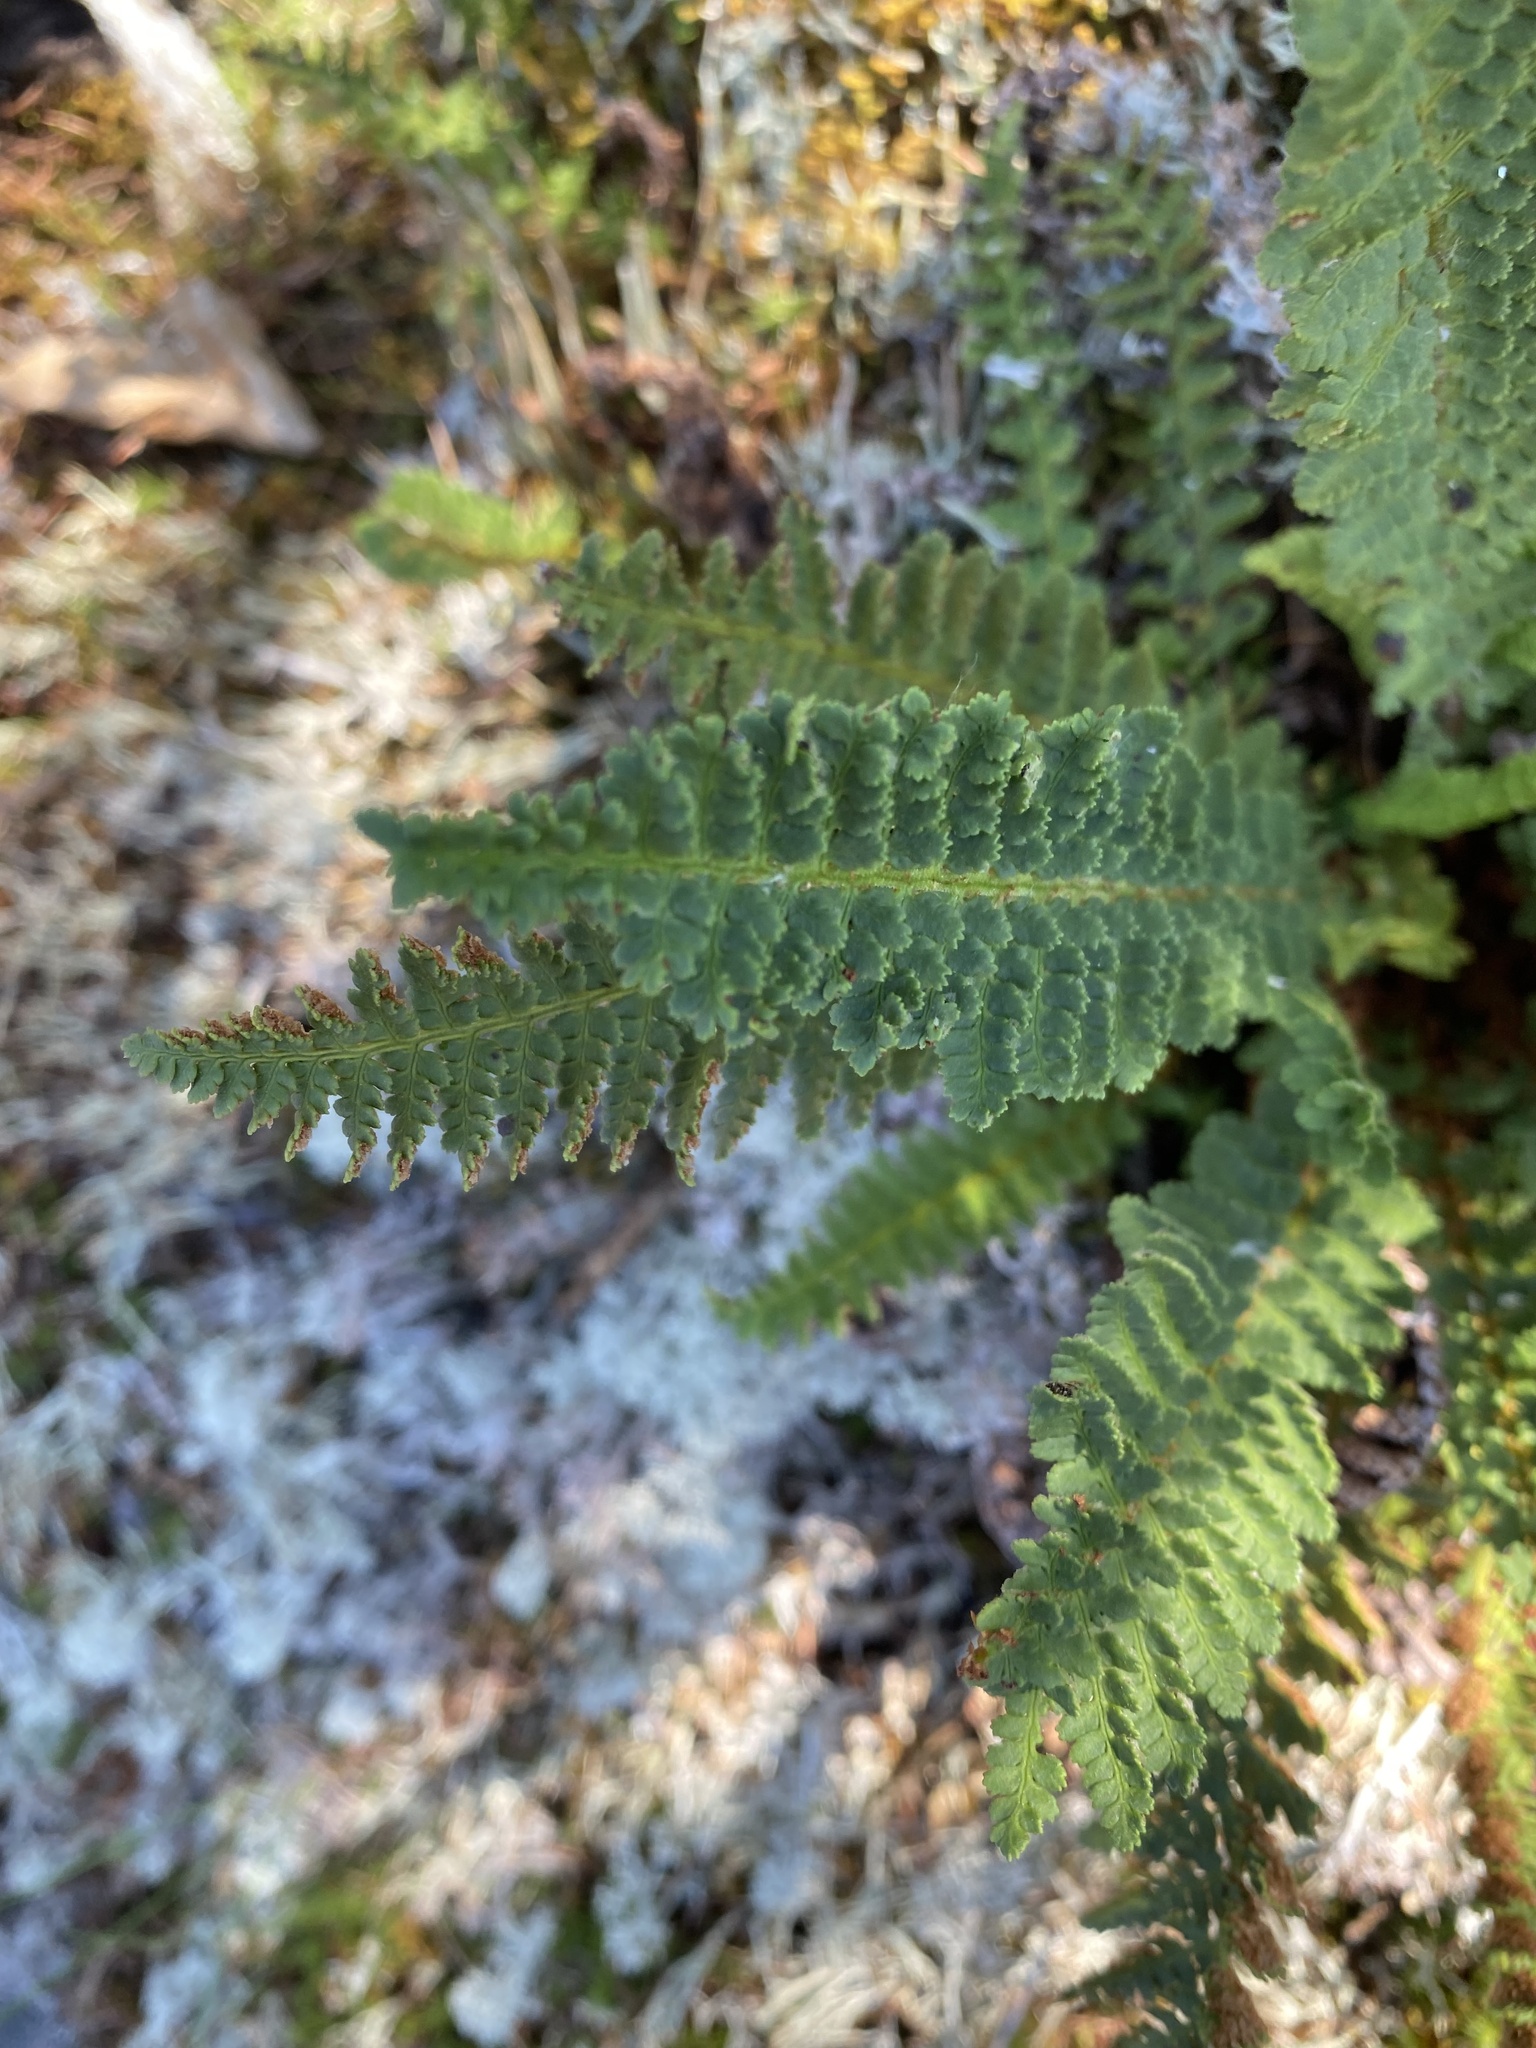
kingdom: Plantae
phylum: Tracheophyta
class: Polypodiopsida
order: Polypodiales
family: Dryopteridaceae
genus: Dryopteris
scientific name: Dryopteris fragrans
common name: Fragrant wood fern
